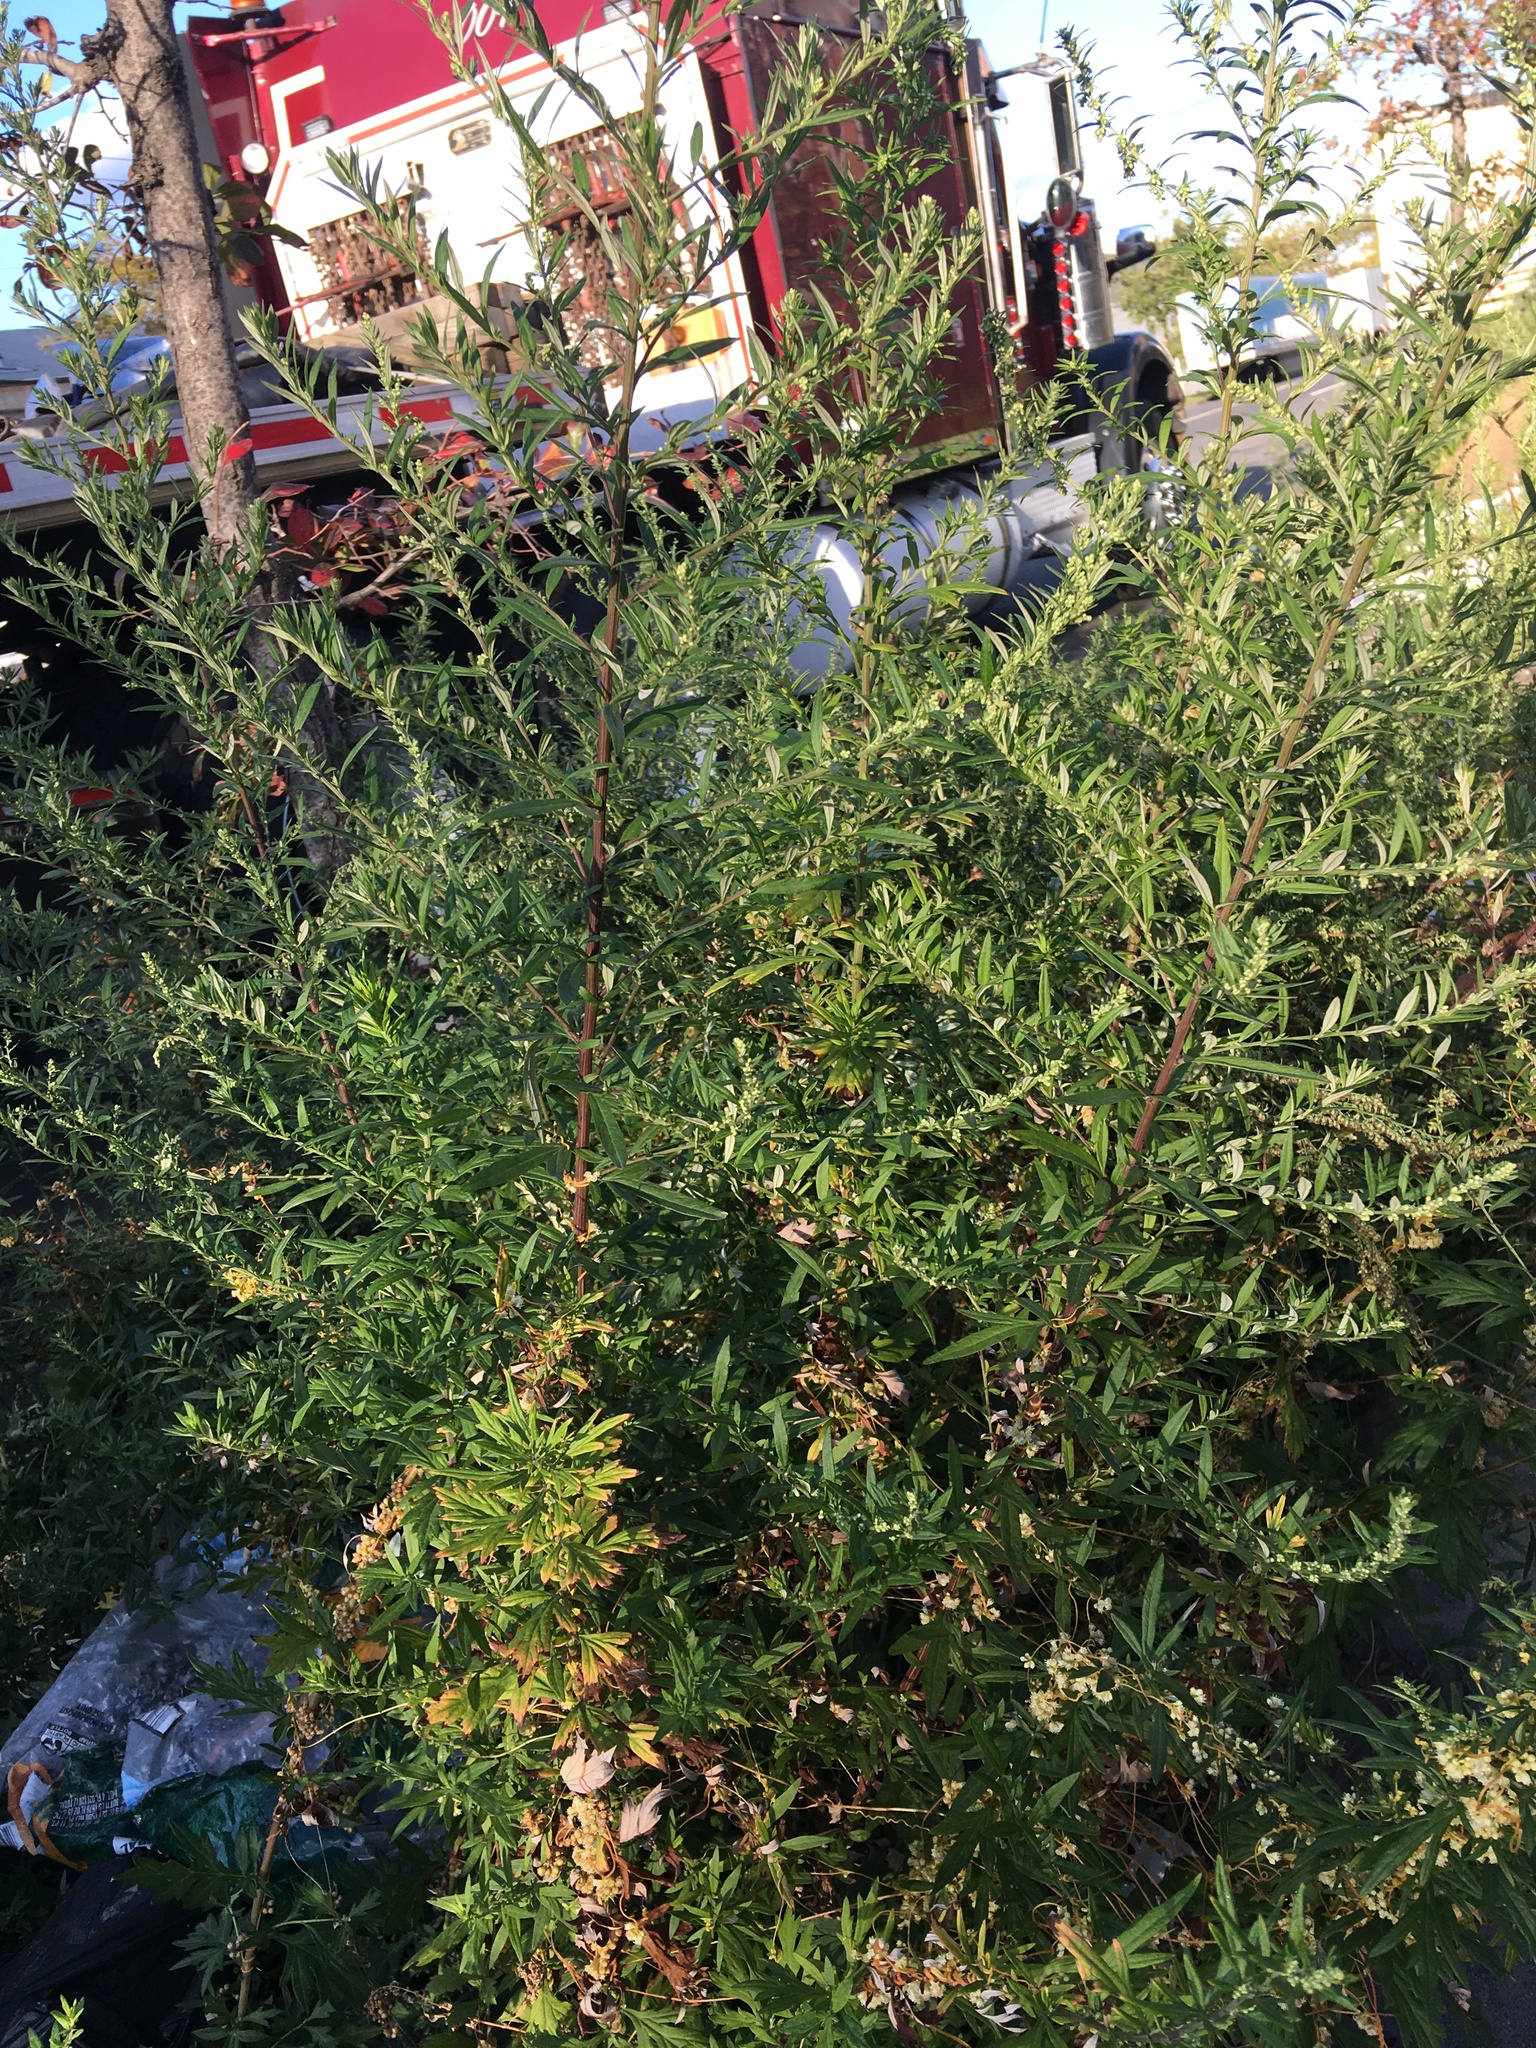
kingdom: Plantae
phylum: Tracheophyta
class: Magnoliopsida
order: Asterales
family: Asteraceae
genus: Artemisia
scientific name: Artemisia vulgaris
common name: Mugwort
